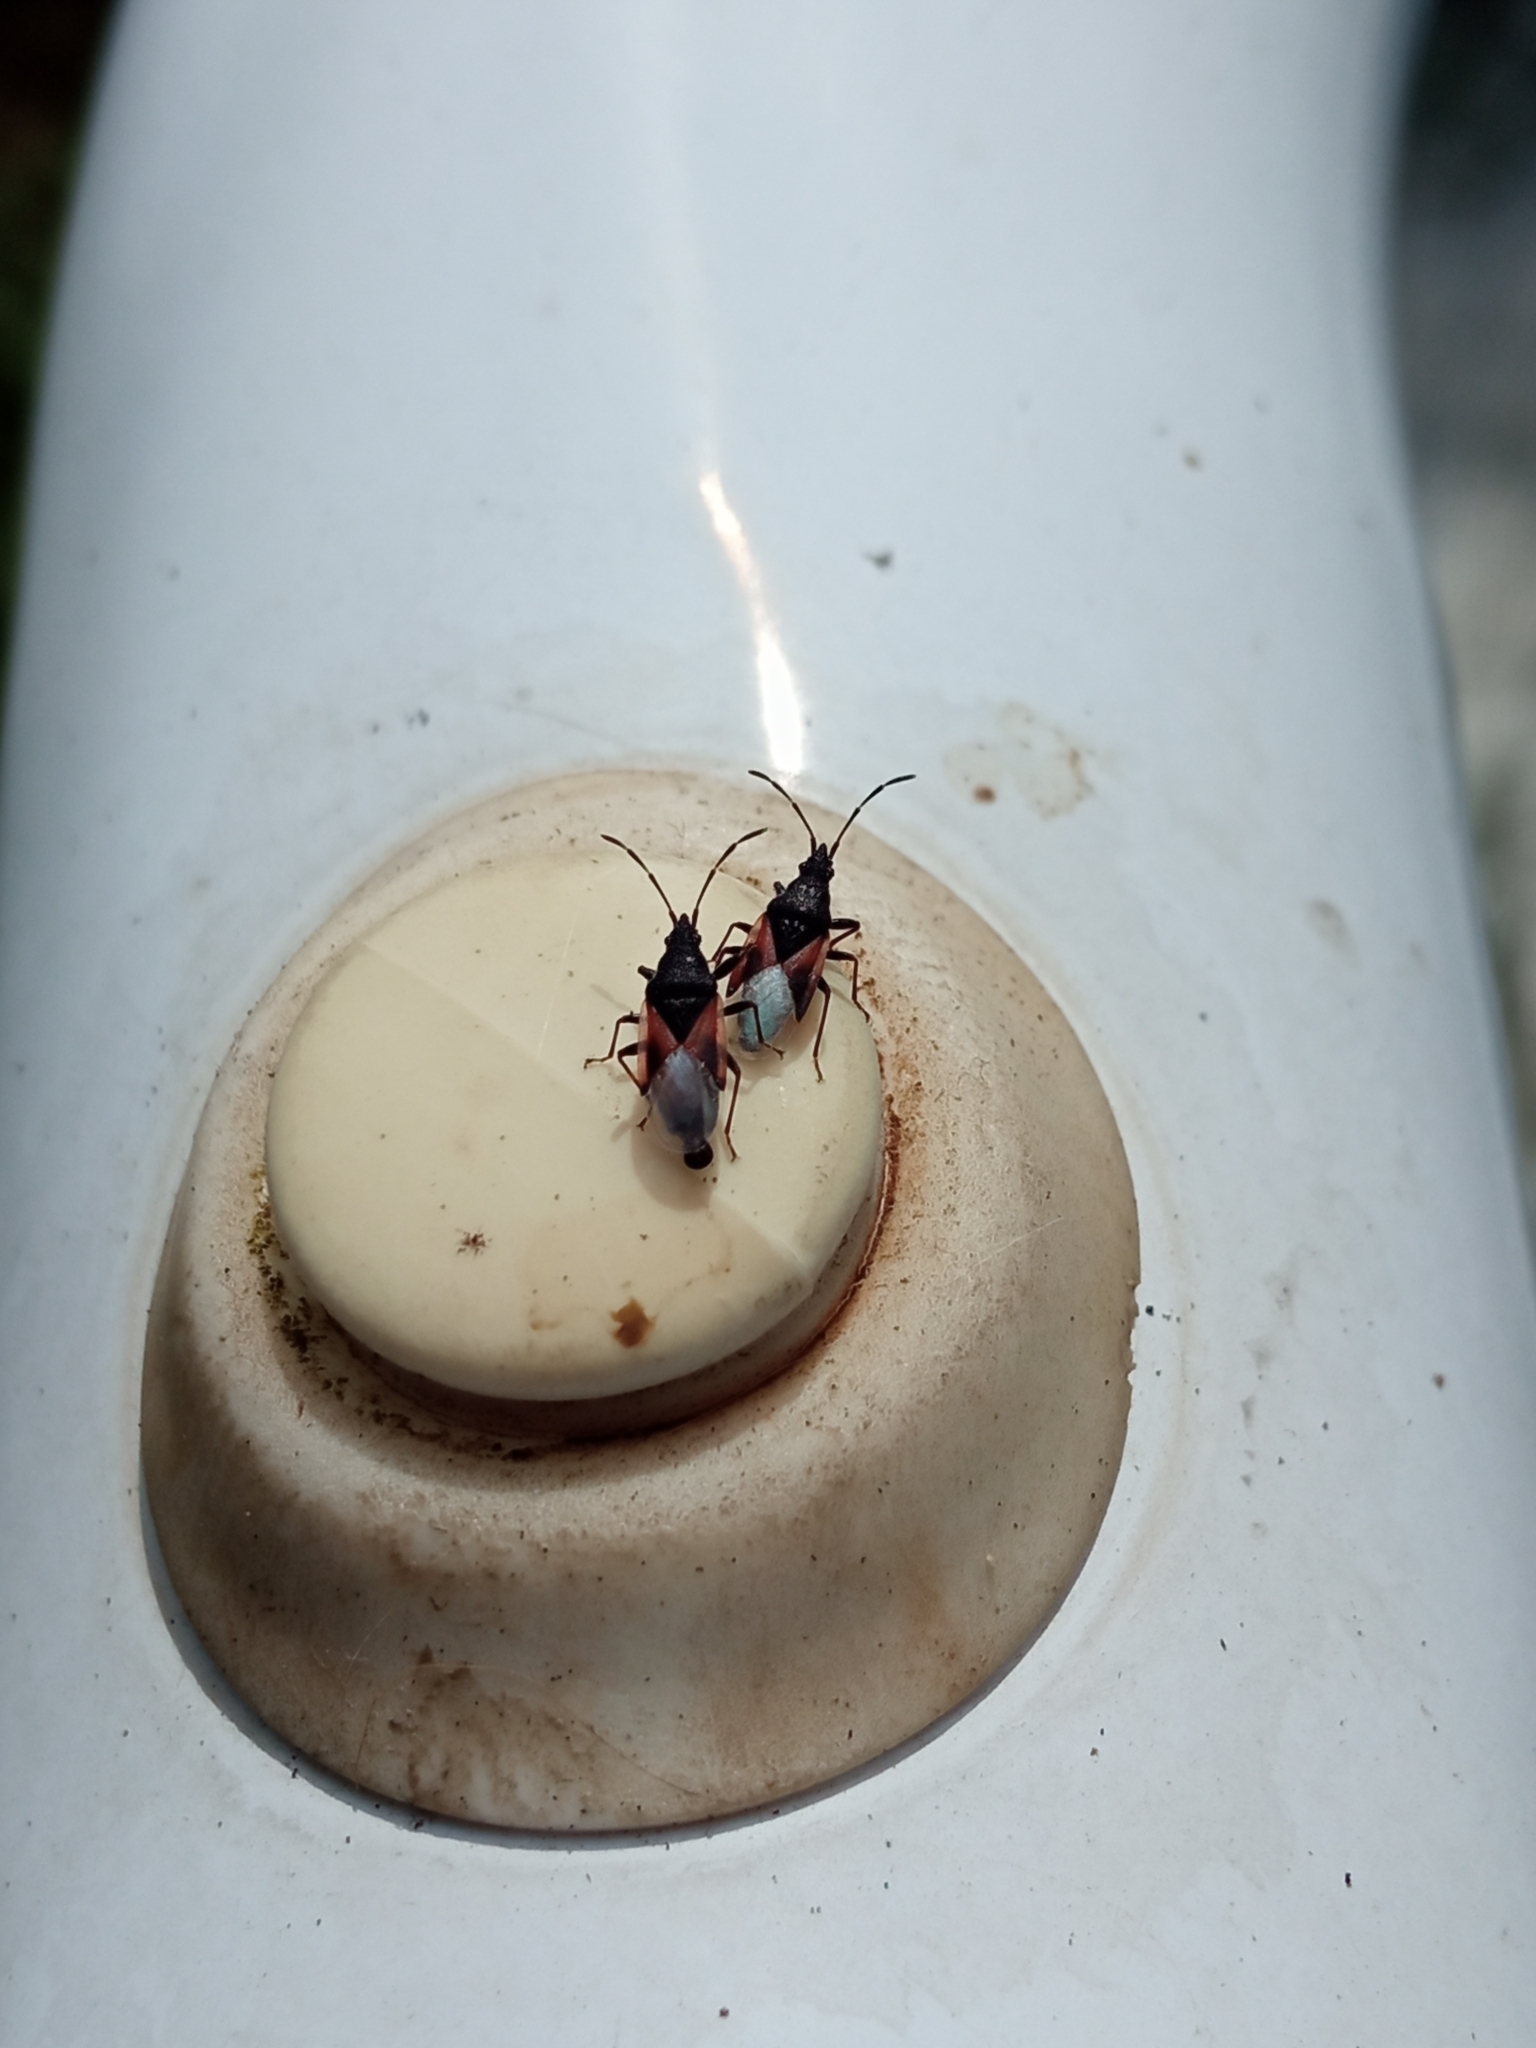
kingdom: Animalia
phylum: Arthropoda
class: Insecta
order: Hemiptera
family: Oxycarenidae
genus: Oxycarenus
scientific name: Oxycarenus lavaterae
